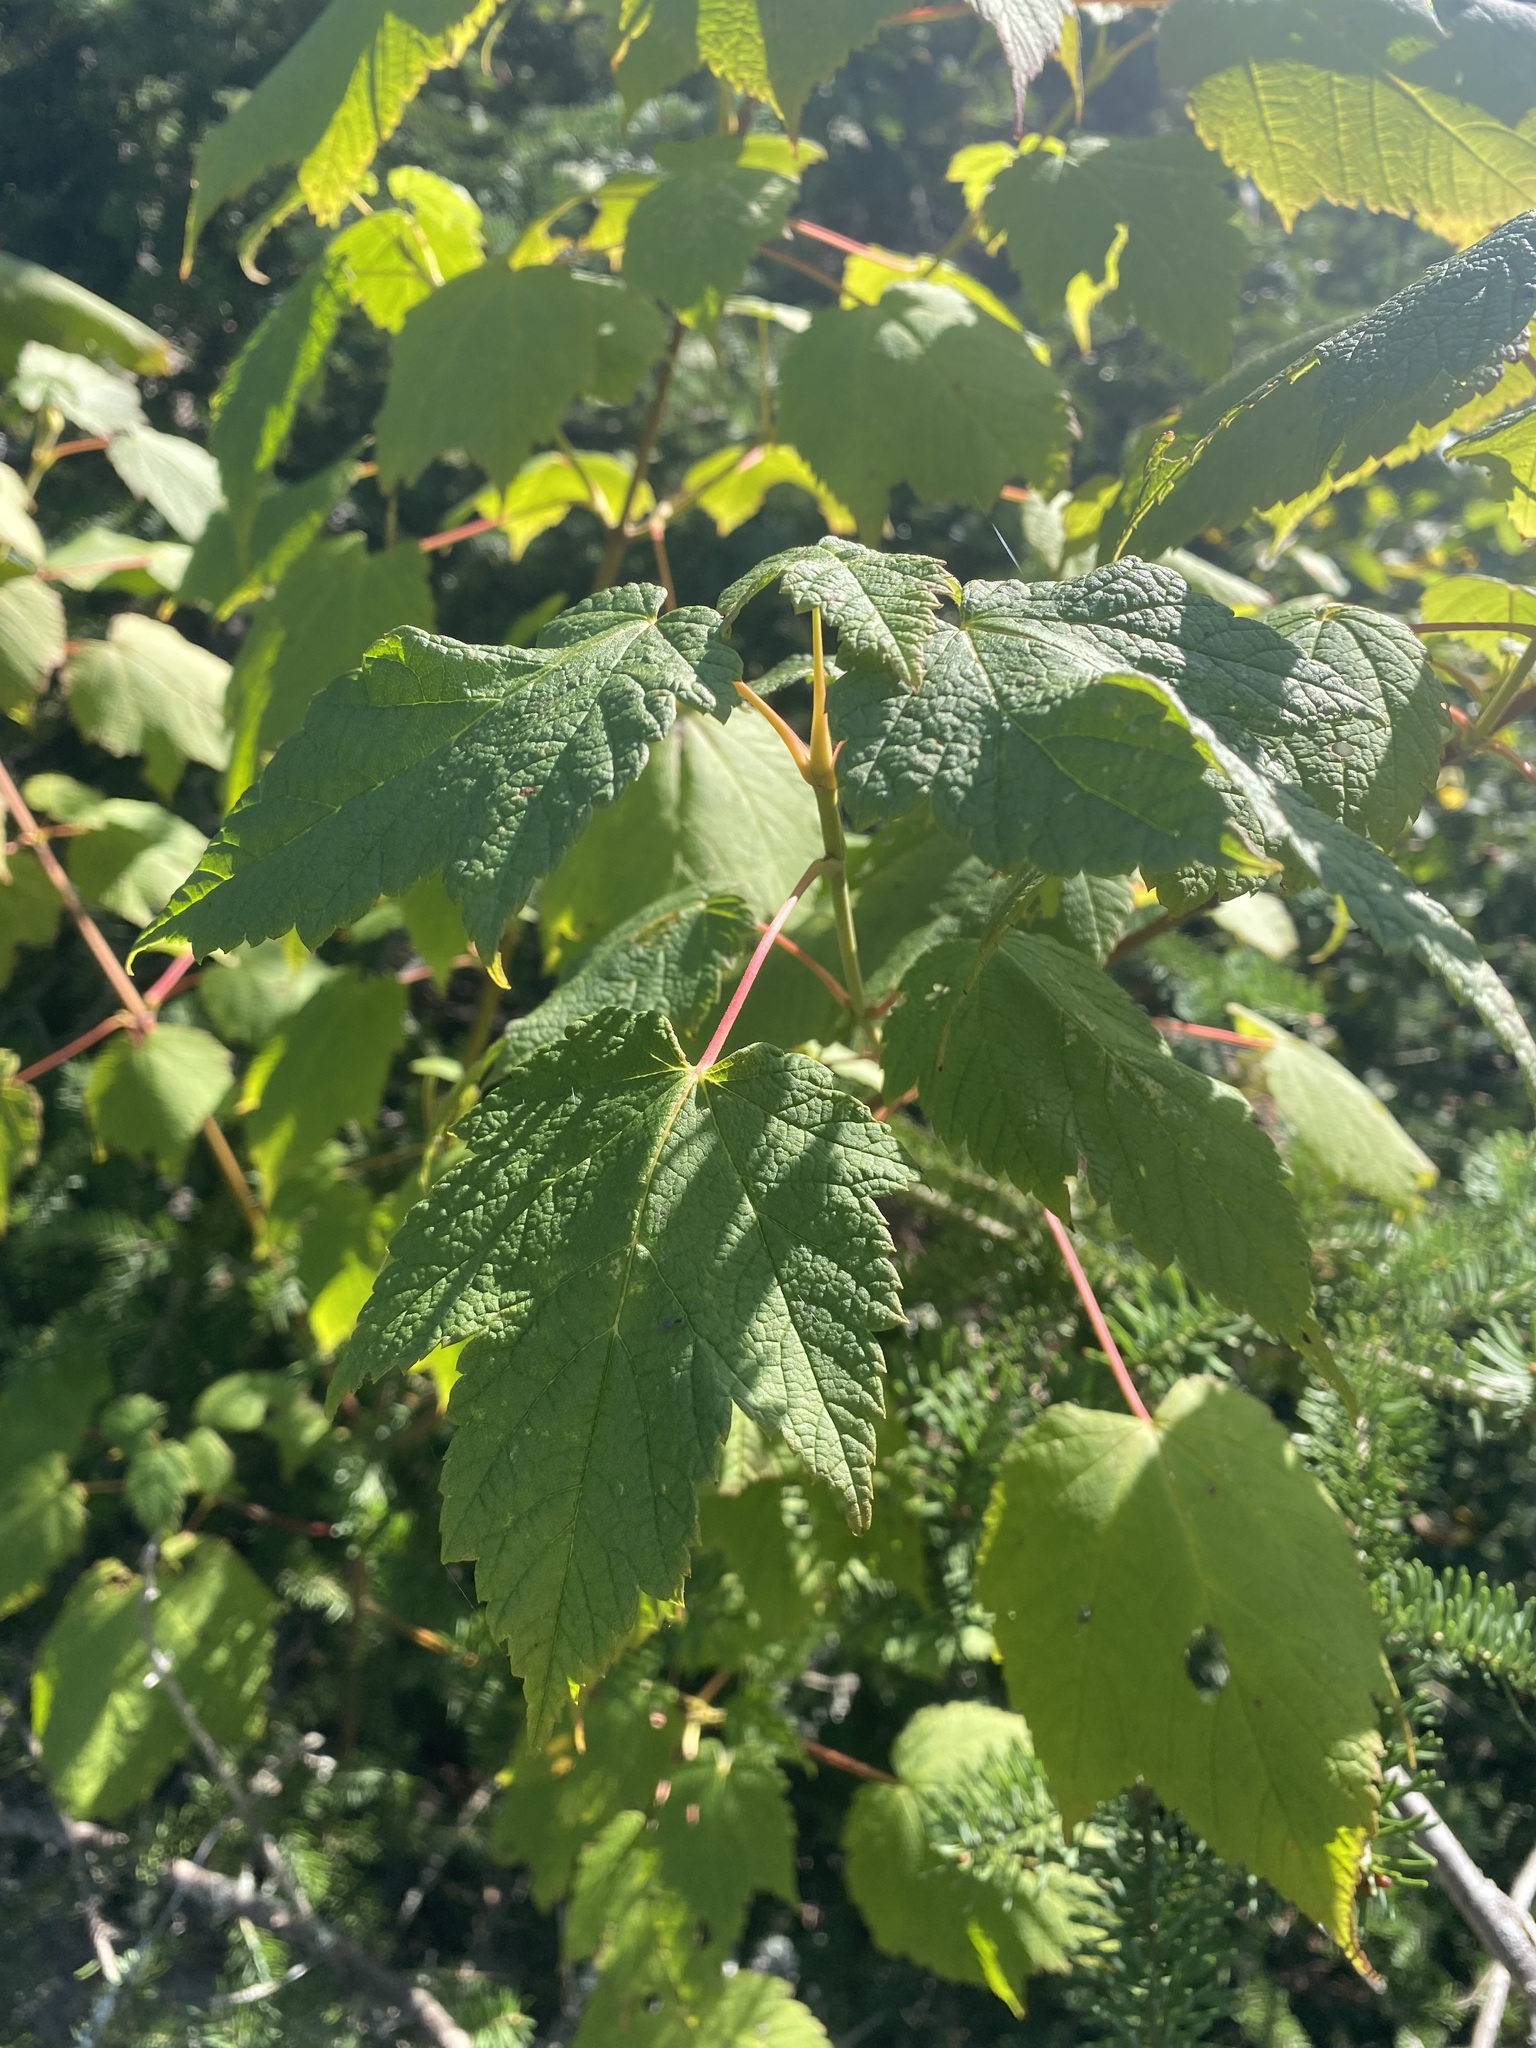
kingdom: Plantae
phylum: Tracheophyta
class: Magnoliopsida
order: Sapindales
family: Sapindaceae
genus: Acer
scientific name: Acer spicatum
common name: Mountain maple
